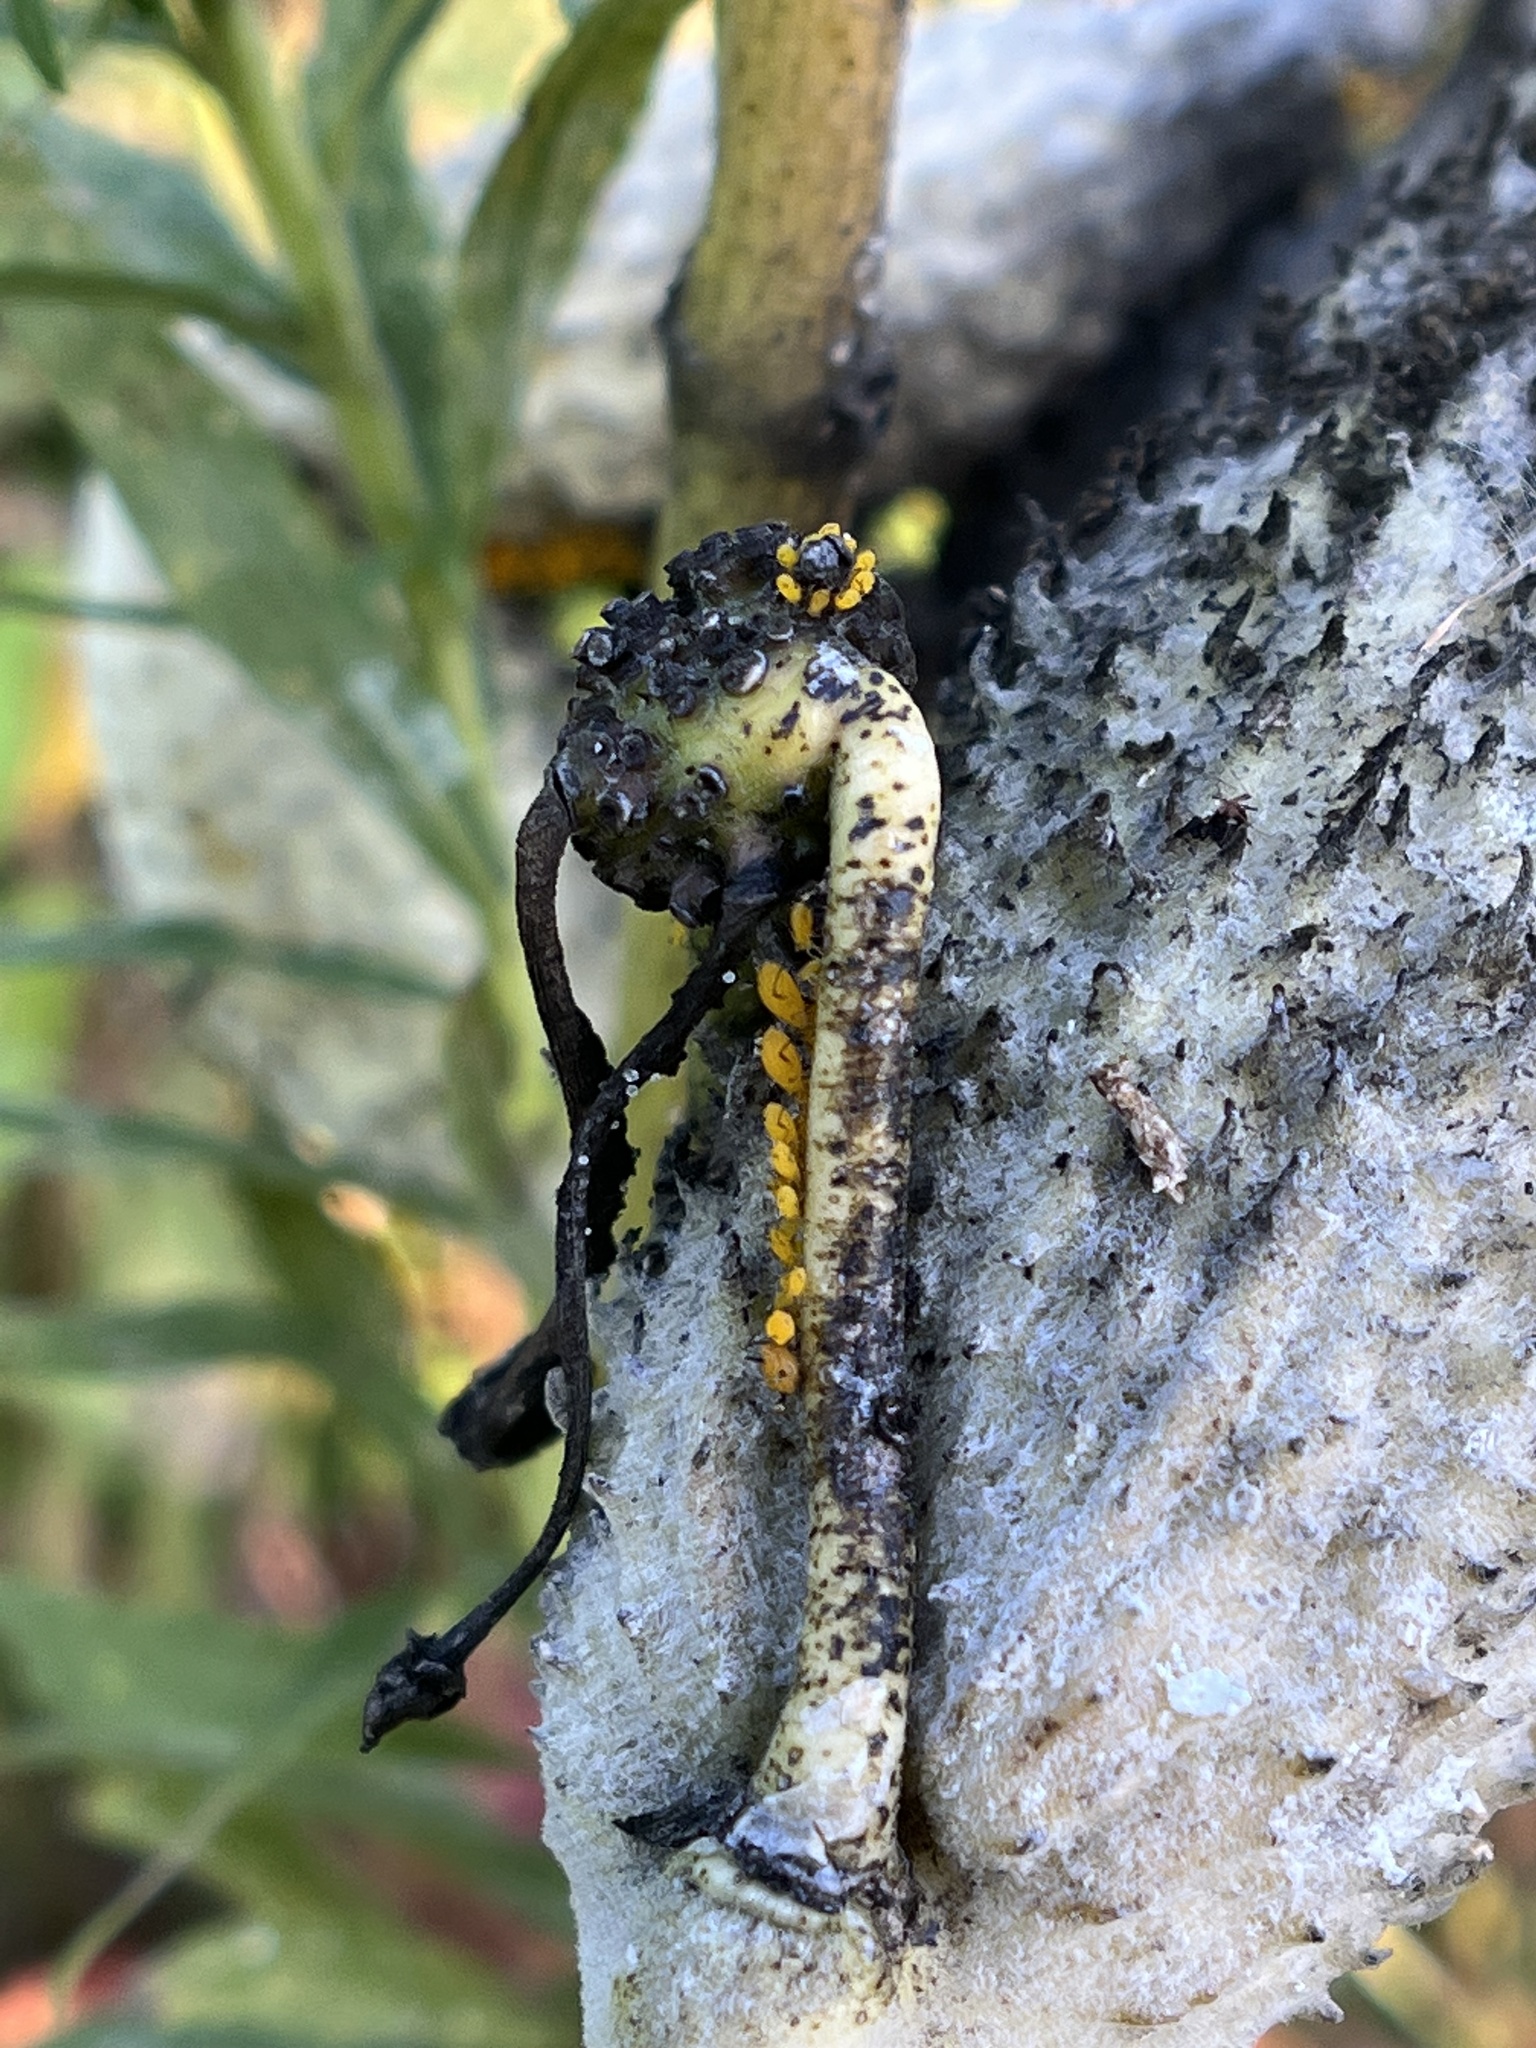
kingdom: Animalia
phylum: Arthropoda
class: Insecta
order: Hemiptera
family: Aphididae
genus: Aphis
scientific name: Aphis nerii
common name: Oleander aphid
